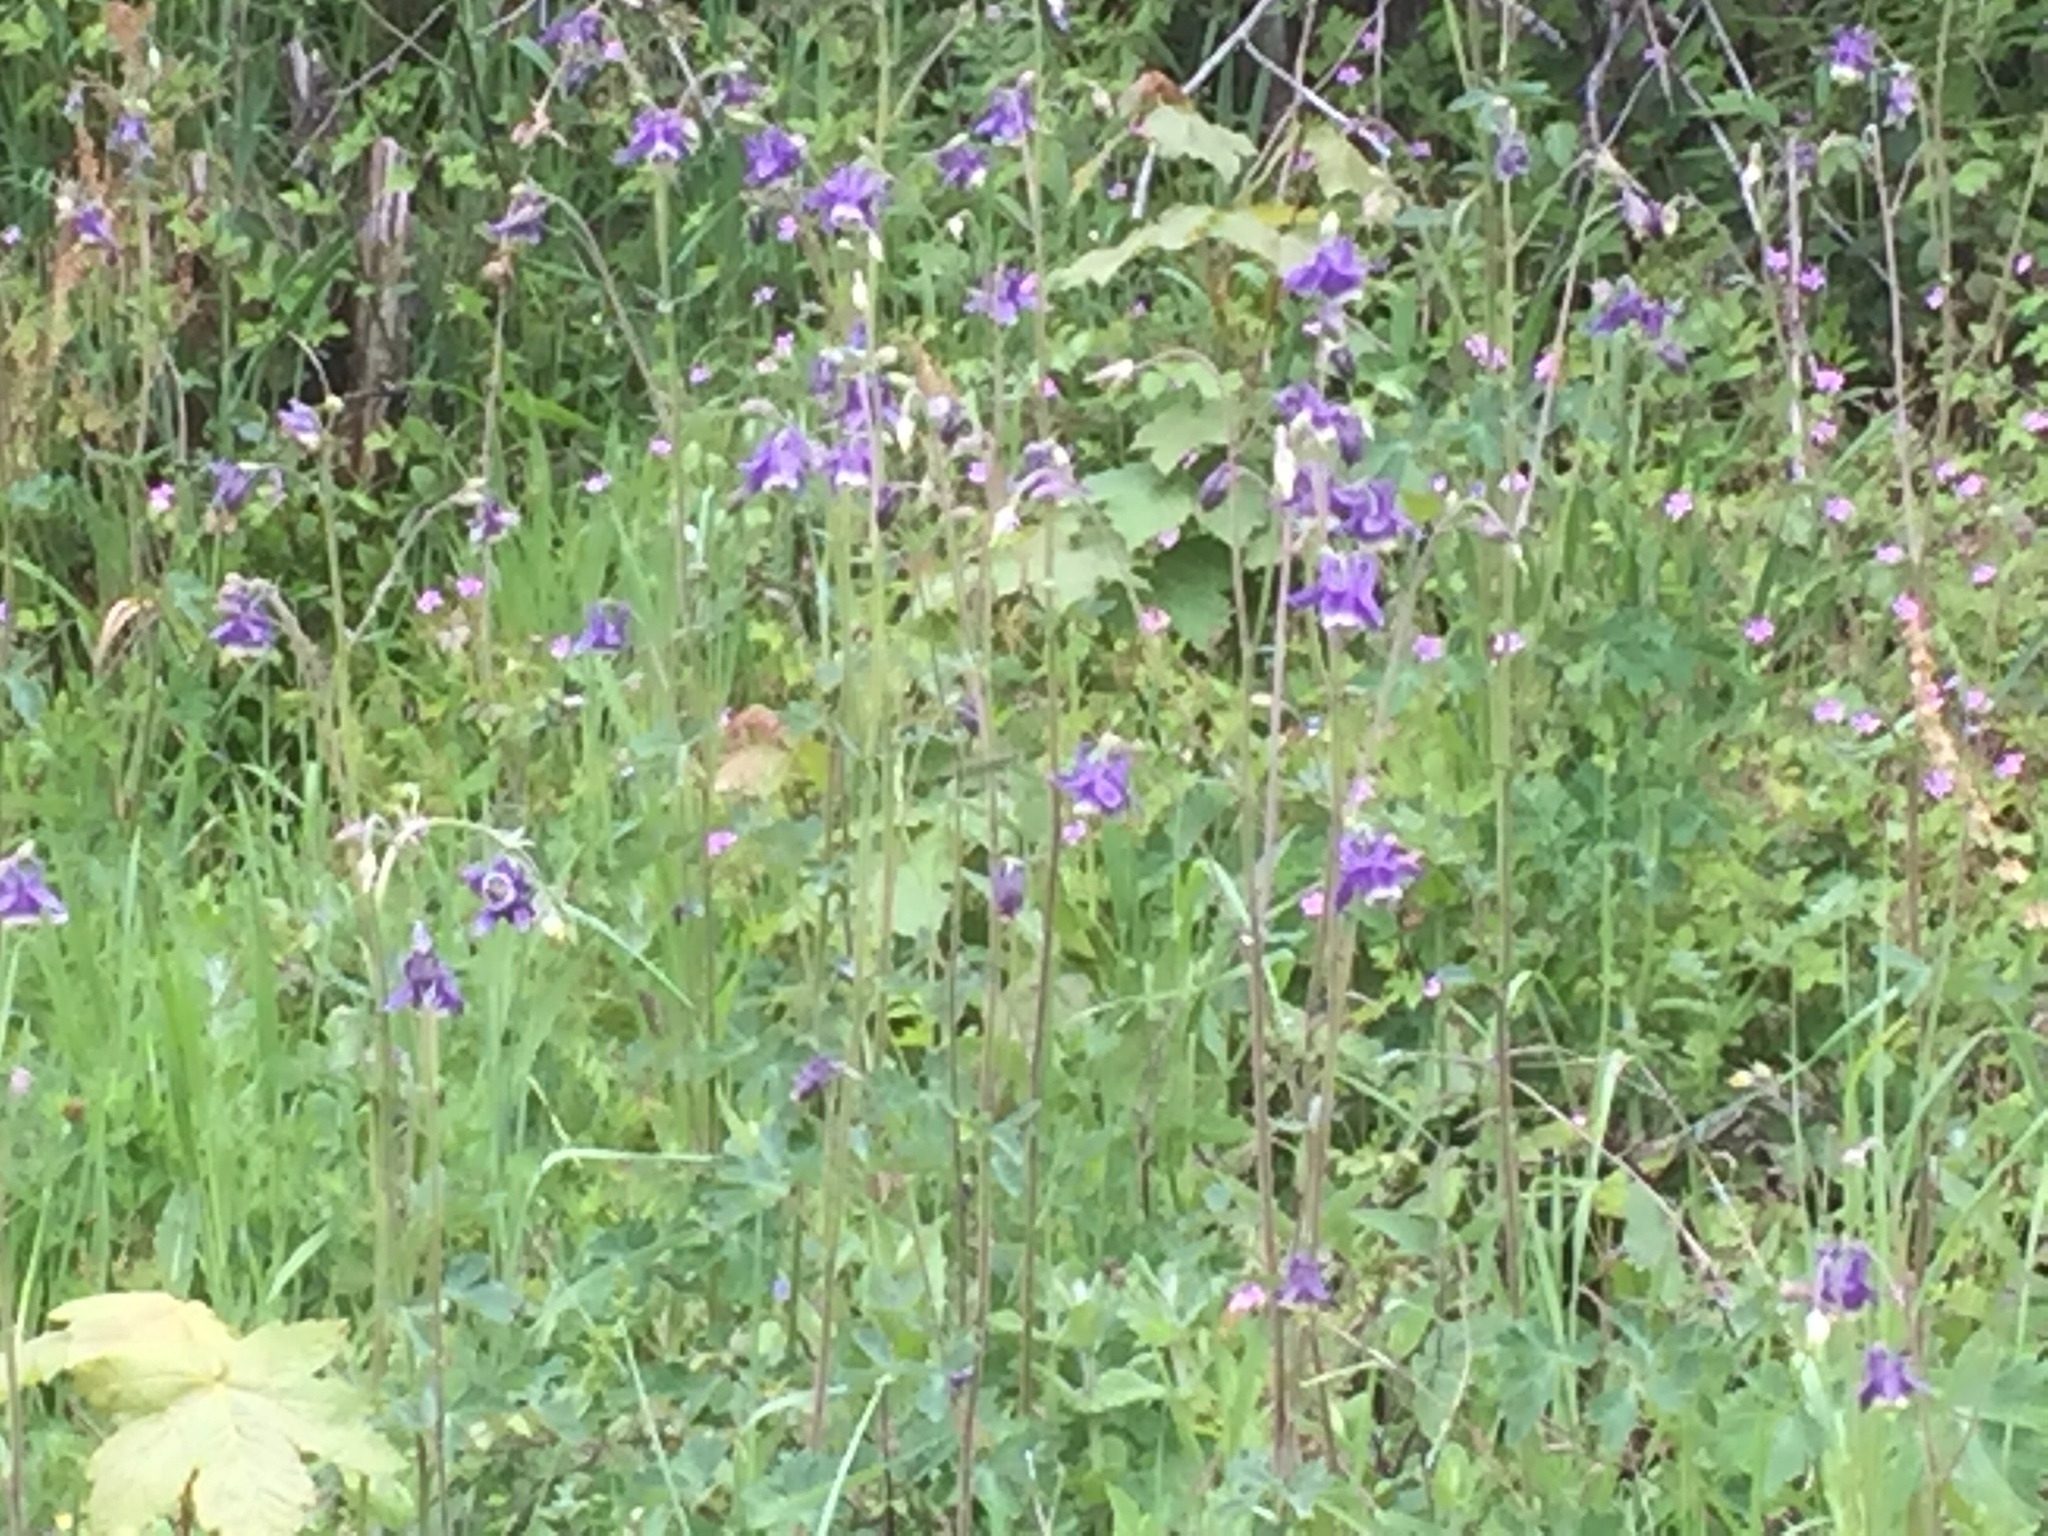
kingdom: Plantae
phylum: Tracheophyta
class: Magnoliopsida
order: Ranunculales
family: Ranunculaceae
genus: Aquilegia
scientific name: Aquilegia vulgaris
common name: Columbine
